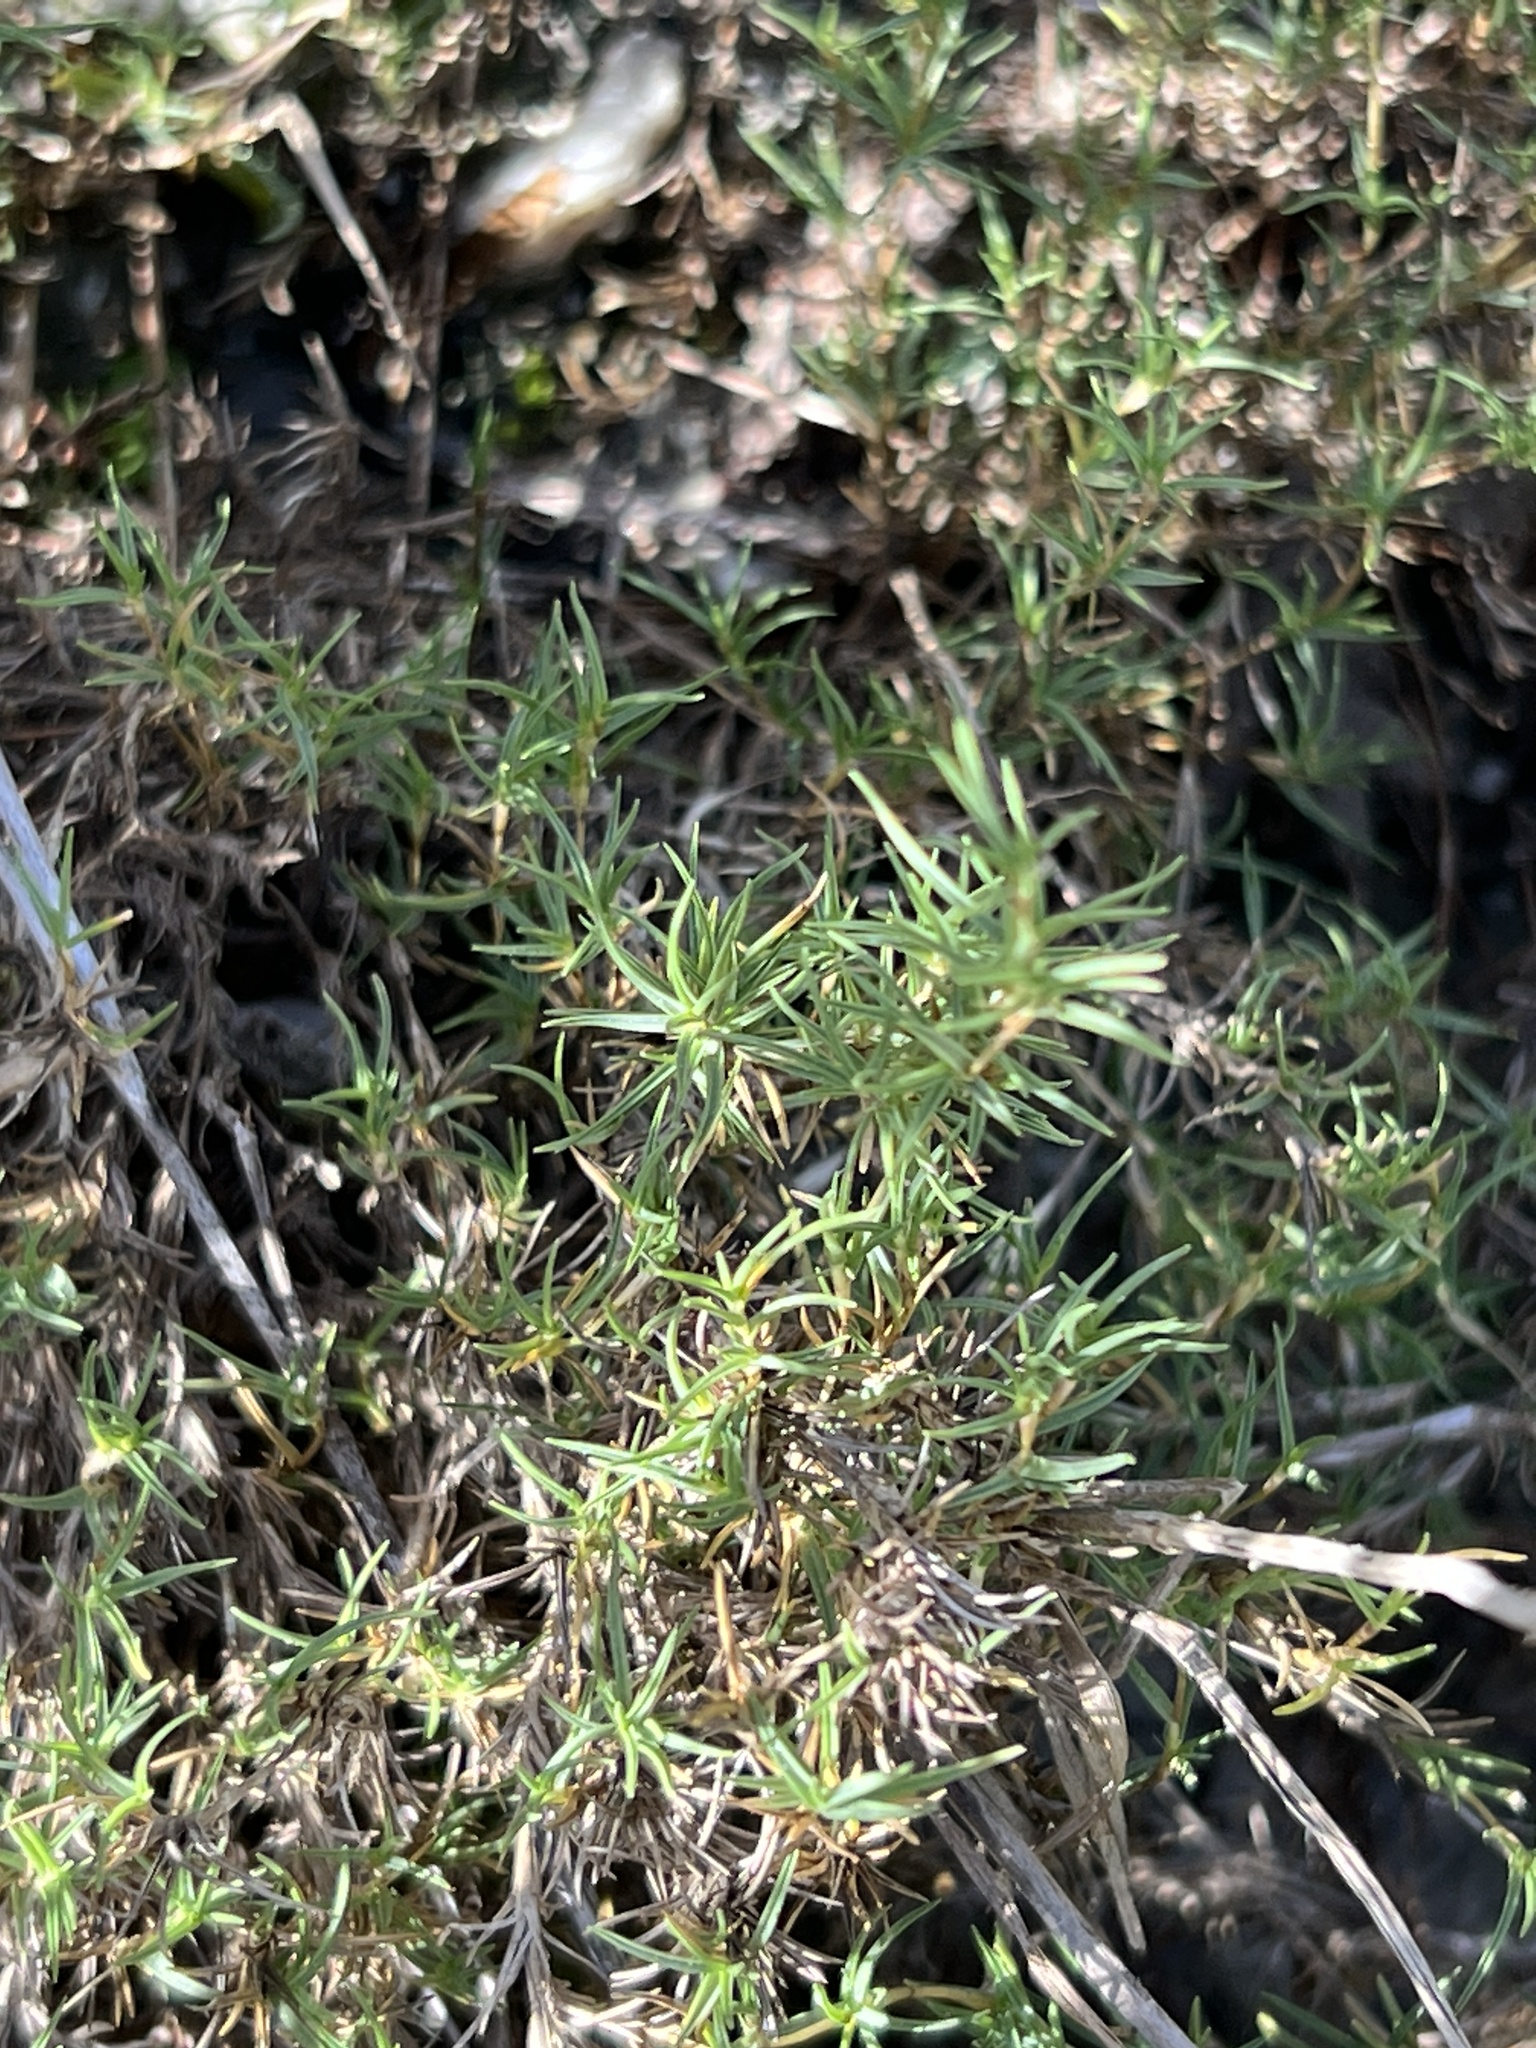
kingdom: Plantae
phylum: Tracheophyta
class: Liliopsida
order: Poales
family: Poaceae
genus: Distichlis
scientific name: Distichlis littoralis
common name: Shore grass
